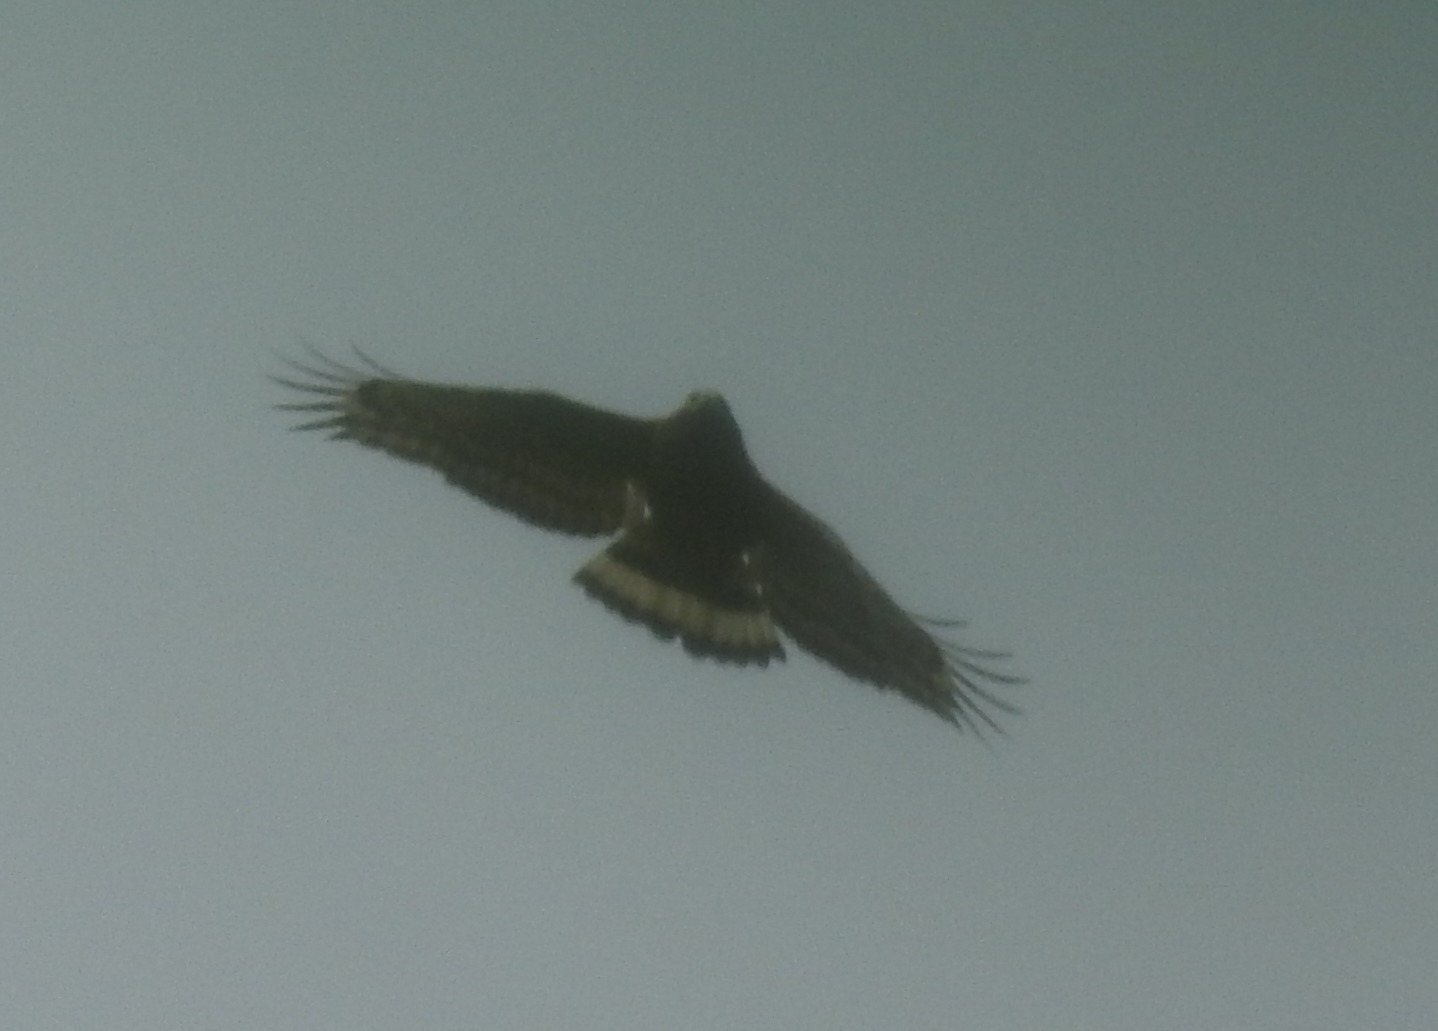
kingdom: Animalia
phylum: Chordata
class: Aves
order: Accipitriformes
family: Accipitridae
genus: Spilornis
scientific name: Spilornis cheela
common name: Crested serpent eagle
